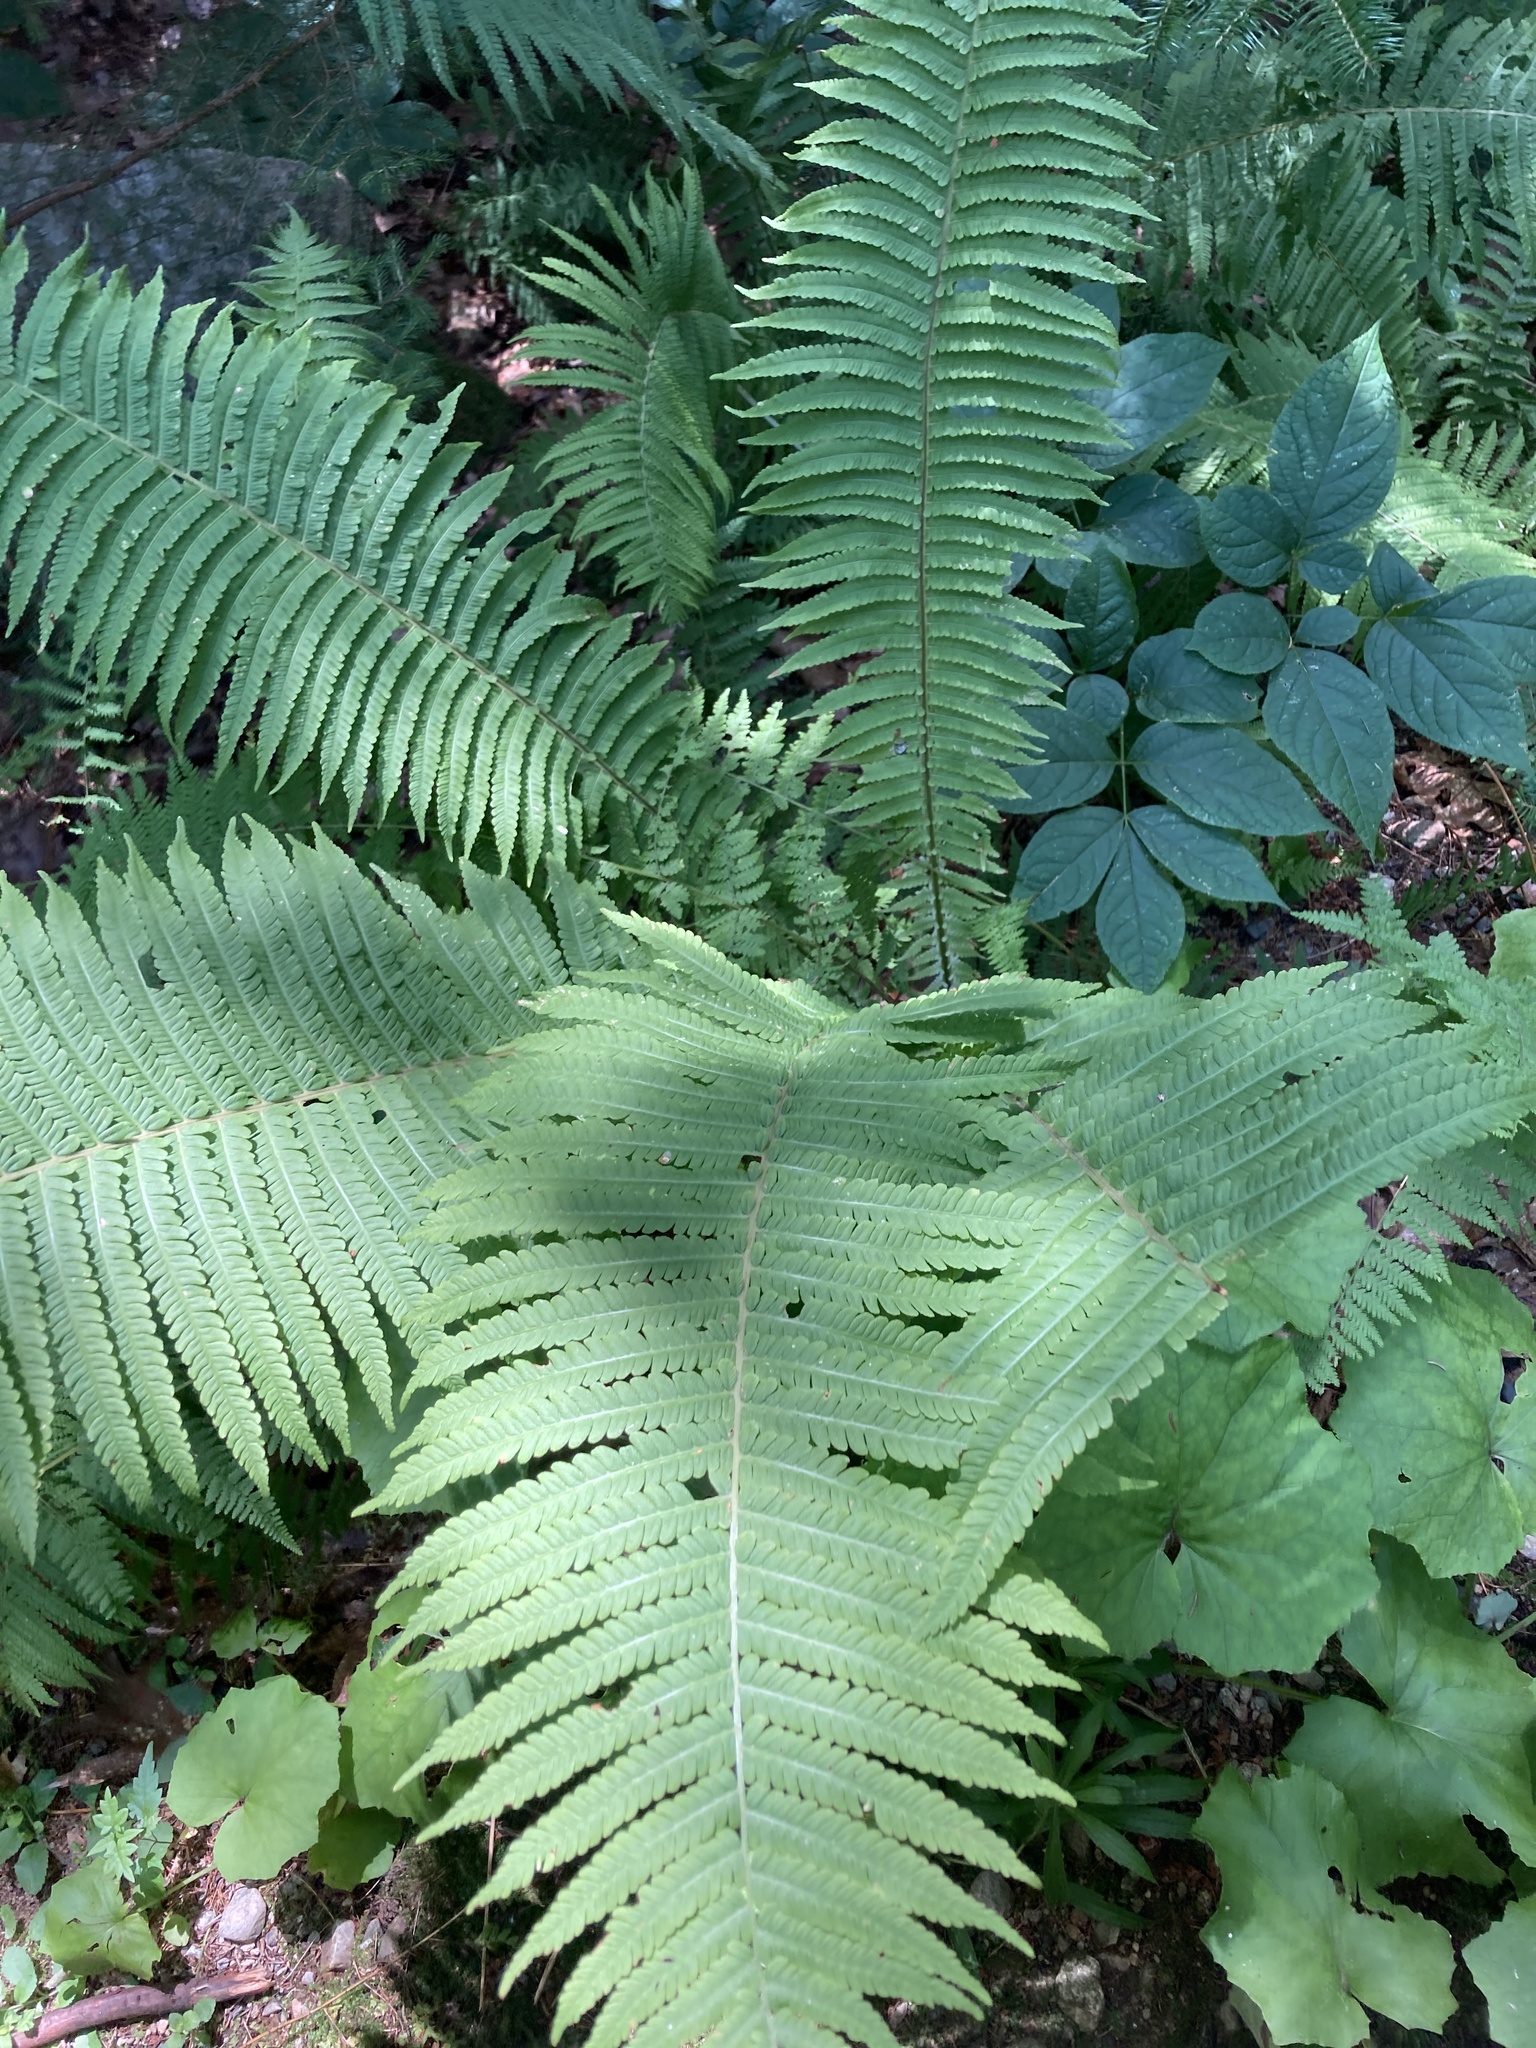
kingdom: Plantae
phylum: Tracheophyta
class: Polypodiopsida
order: Polypodiales
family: Onocleaceae
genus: Matteuccia
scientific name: Matteuccia struthiopteris
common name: Ostrich fern
